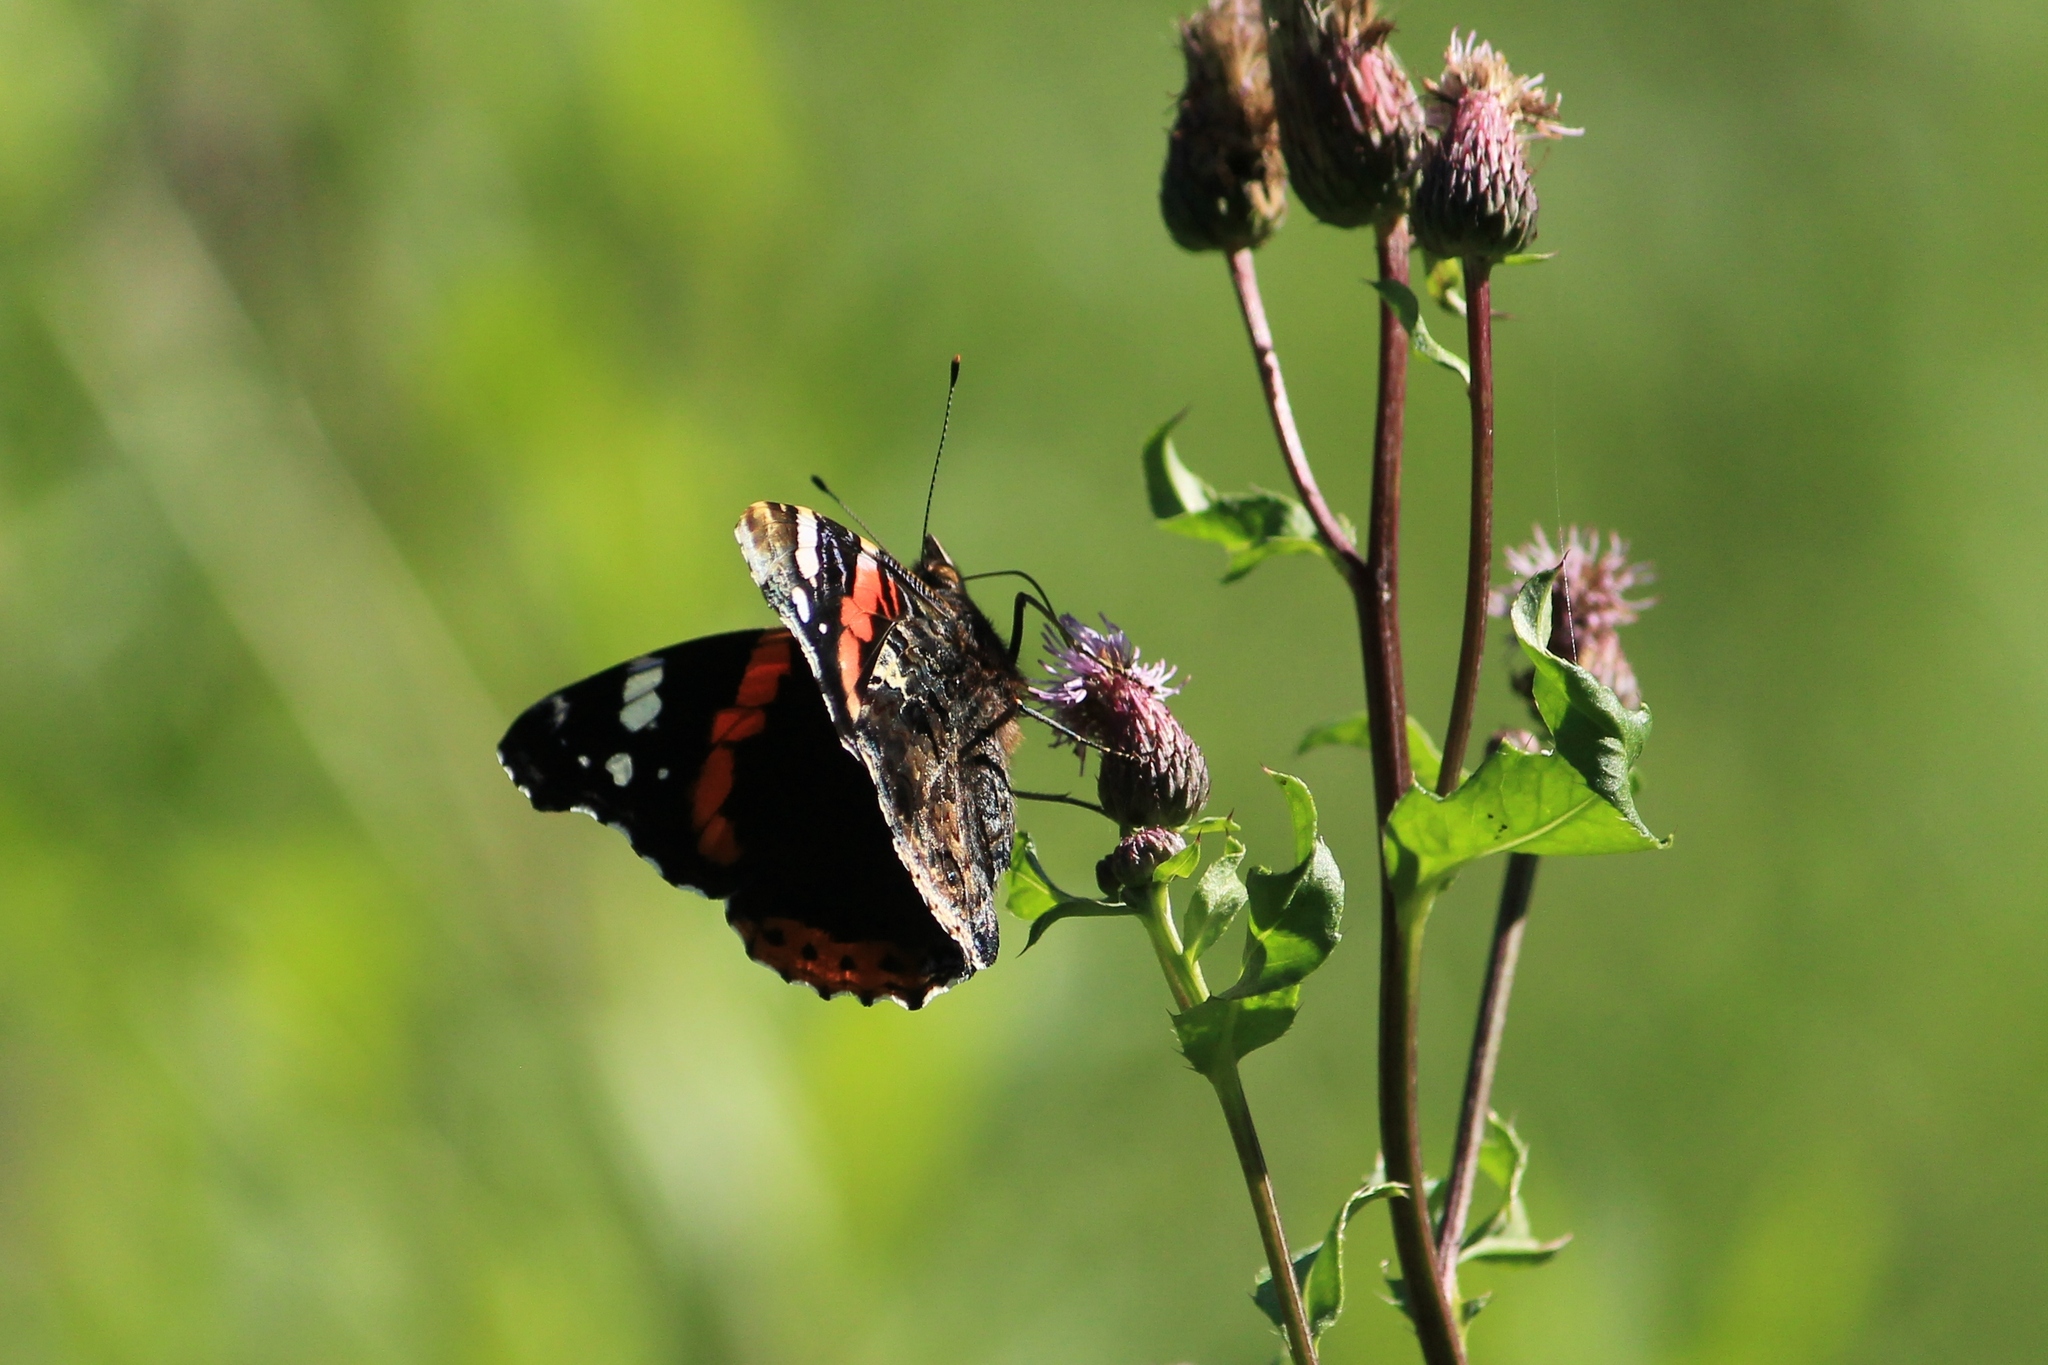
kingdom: Animalia
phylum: Arthropoda
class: Insecta
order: Lepidoptera
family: Nymphalidae
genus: Vanessa
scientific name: Vanessa atalanta
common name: Red admiral
